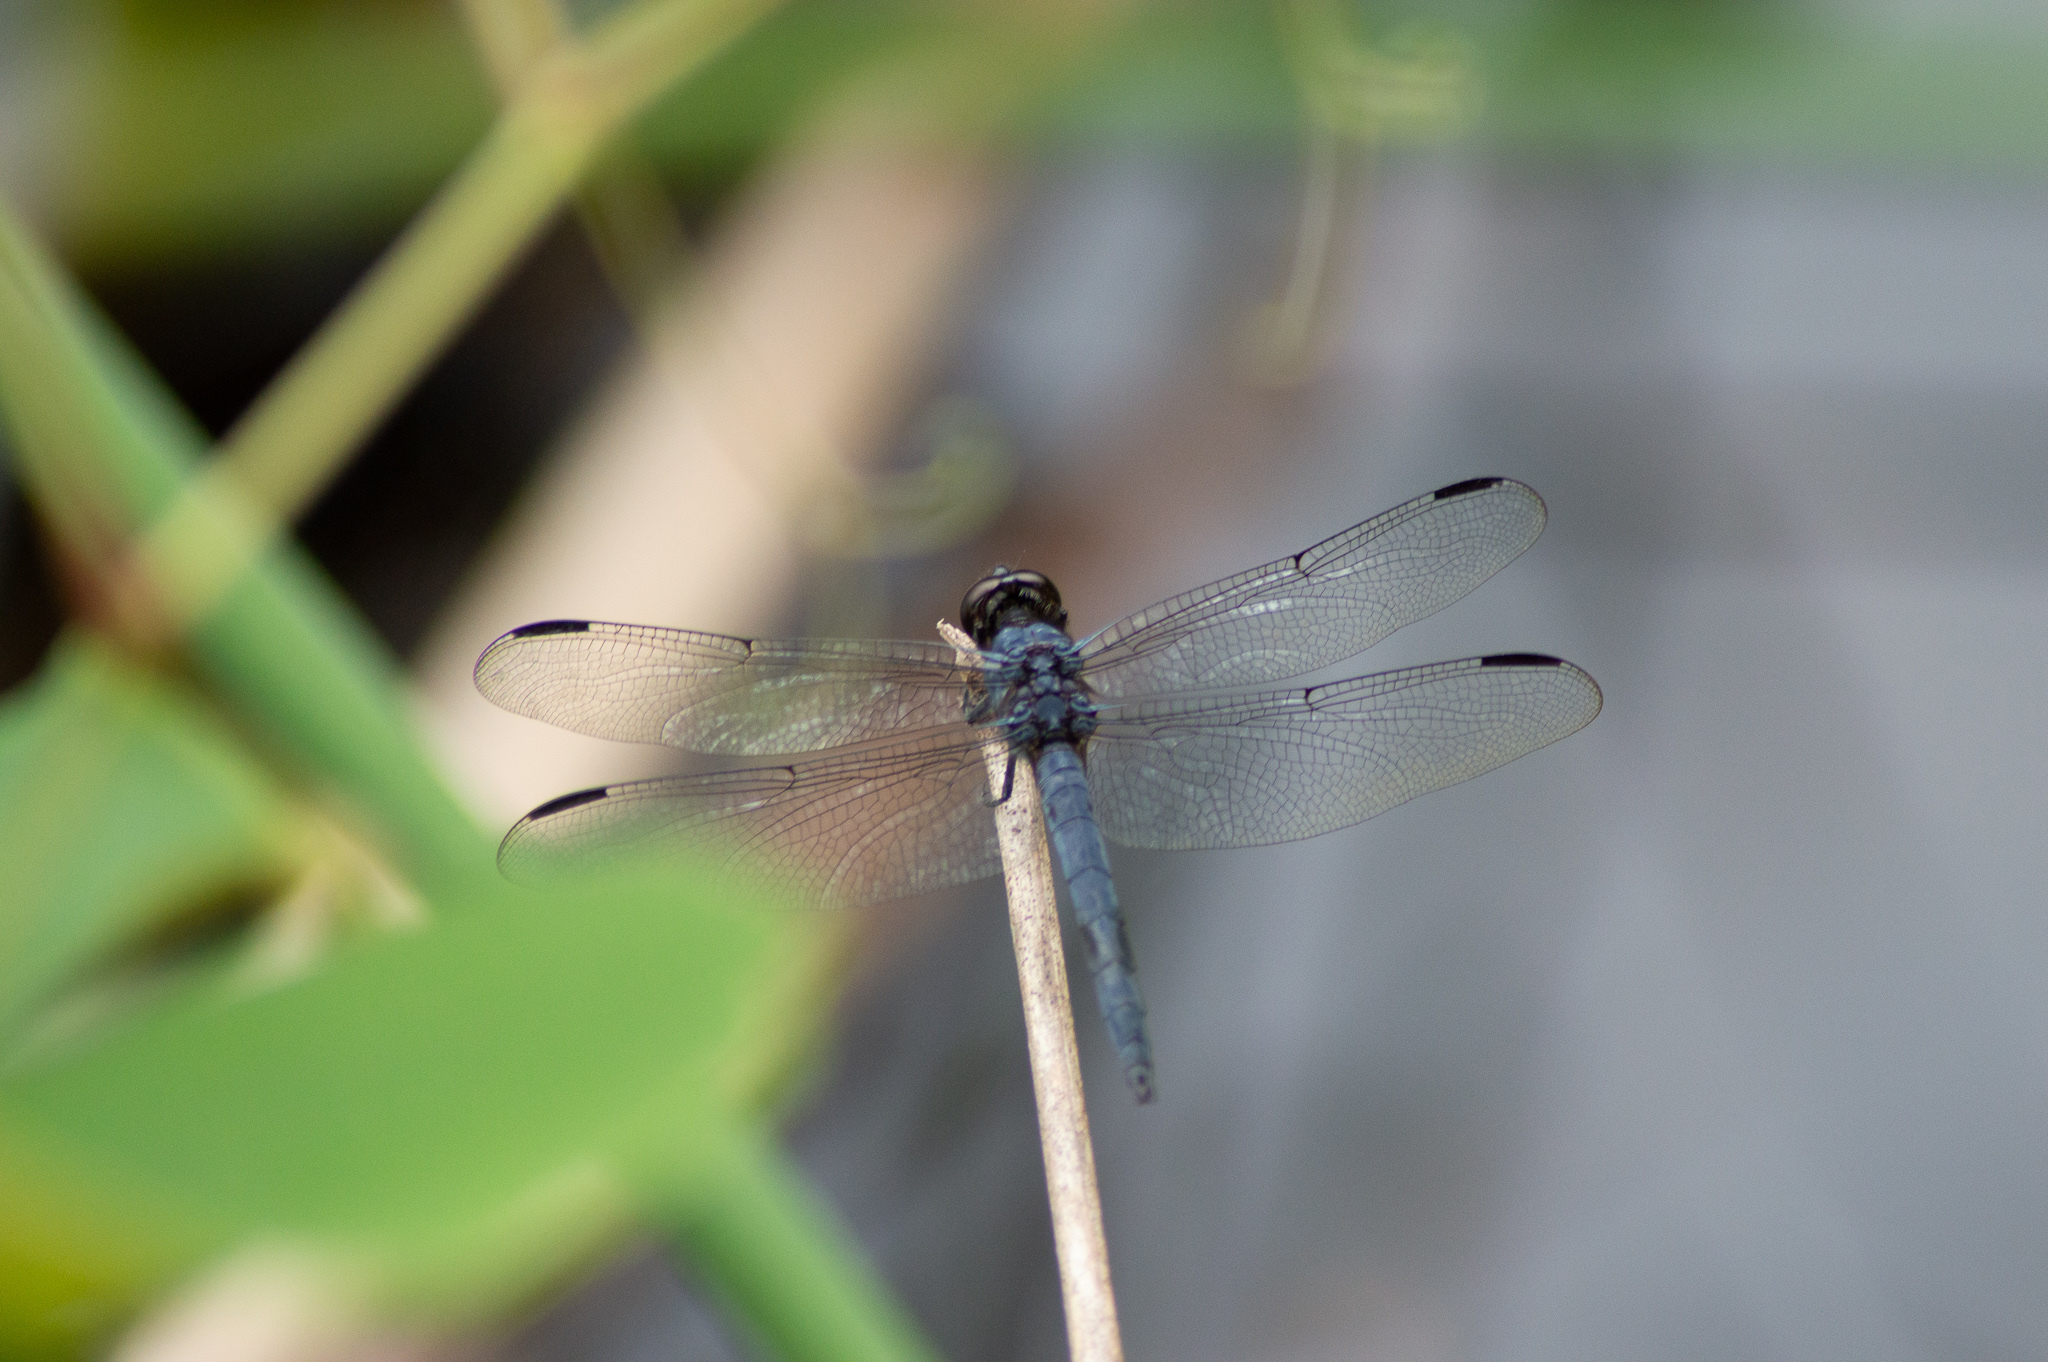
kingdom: Animalia
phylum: Arthropoda
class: Insecta
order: Odonata
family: Libellulidae
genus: Libellula
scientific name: Libellula incesta
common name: Slaty skimmer
